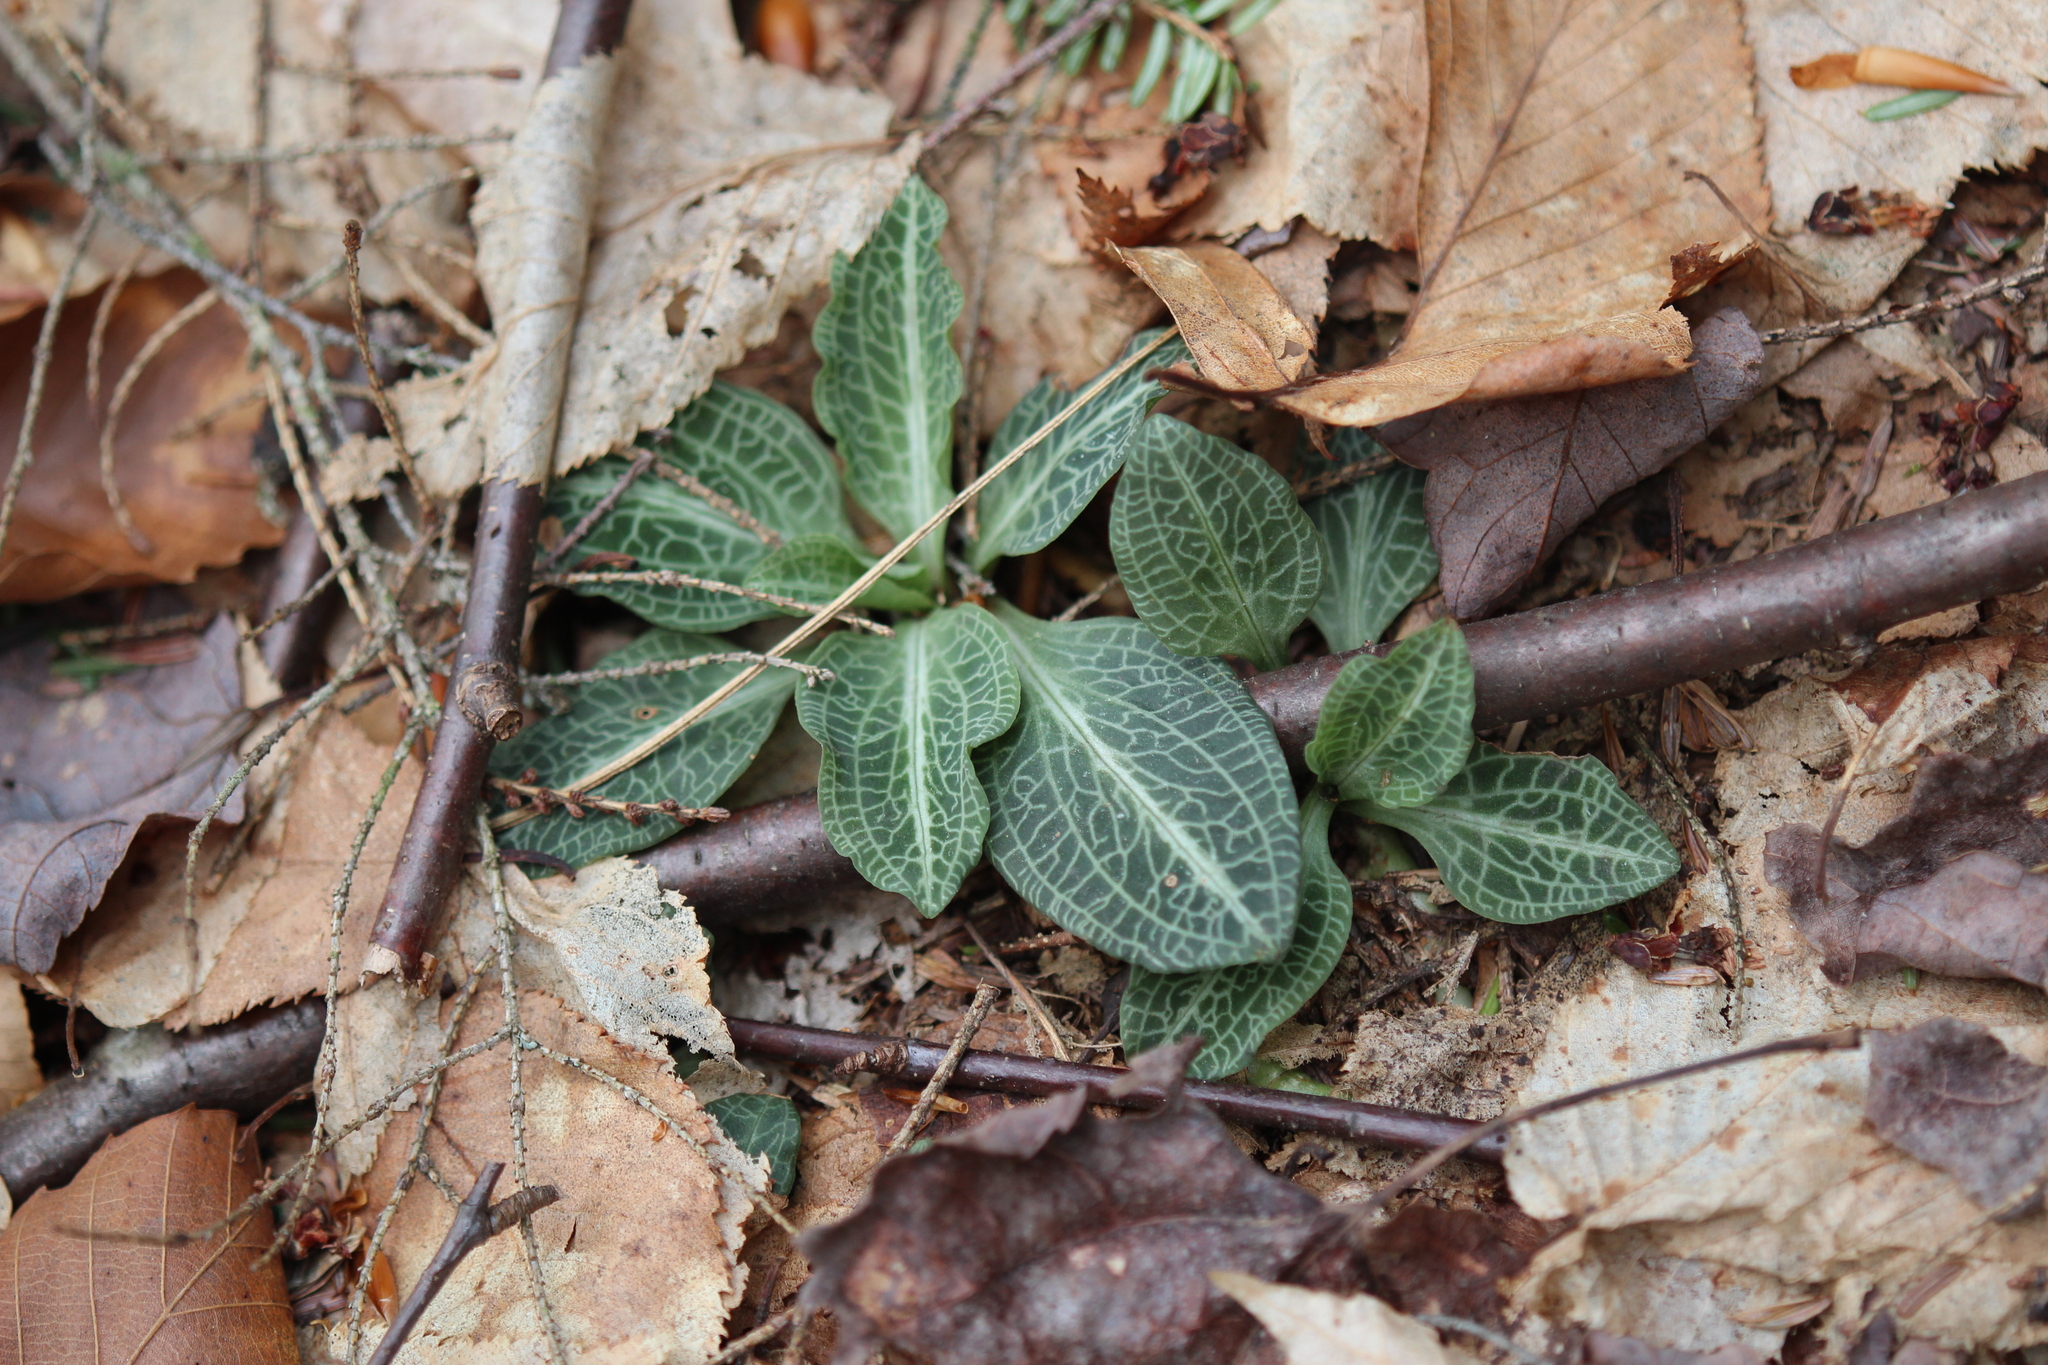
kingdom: Plantae
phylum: Tracheophyta
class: Liliopsida
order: Asparagales
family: Orchidaceae
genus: Goodyera
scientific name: Goodyera pubescens
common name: Downy rattlesnake-plantain
